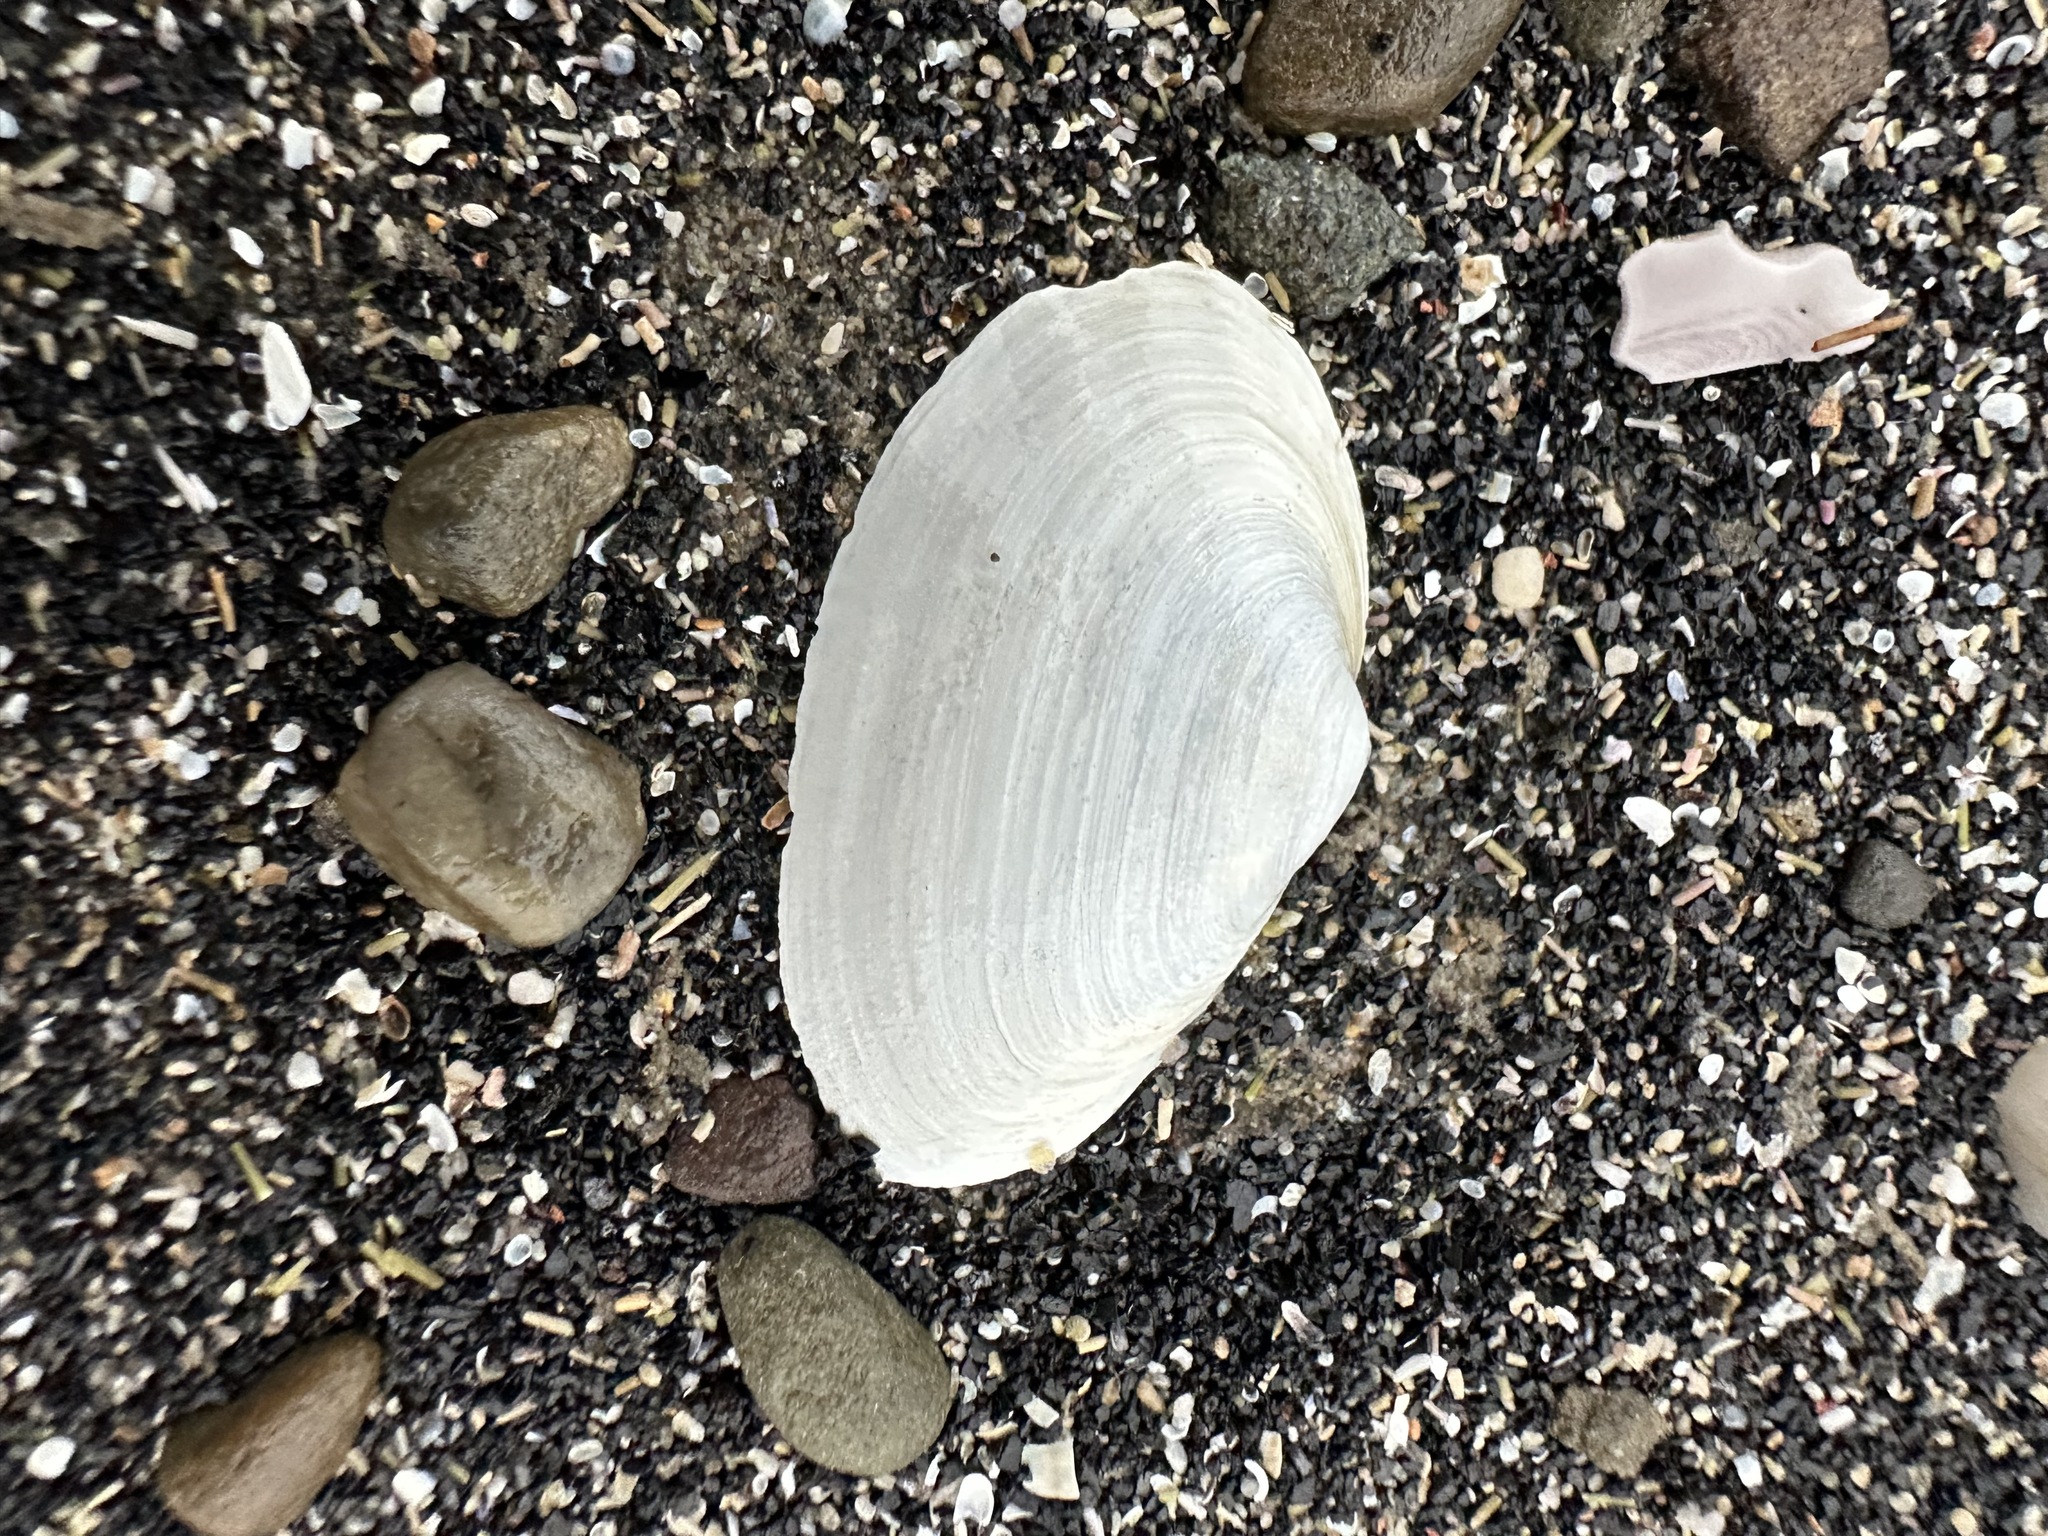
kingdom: Animalia
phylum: Mollusca
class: Bivalvia
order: Myida
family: Myidae
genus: Mya
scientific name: Mya arenaria
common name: Soft-shelled clam
